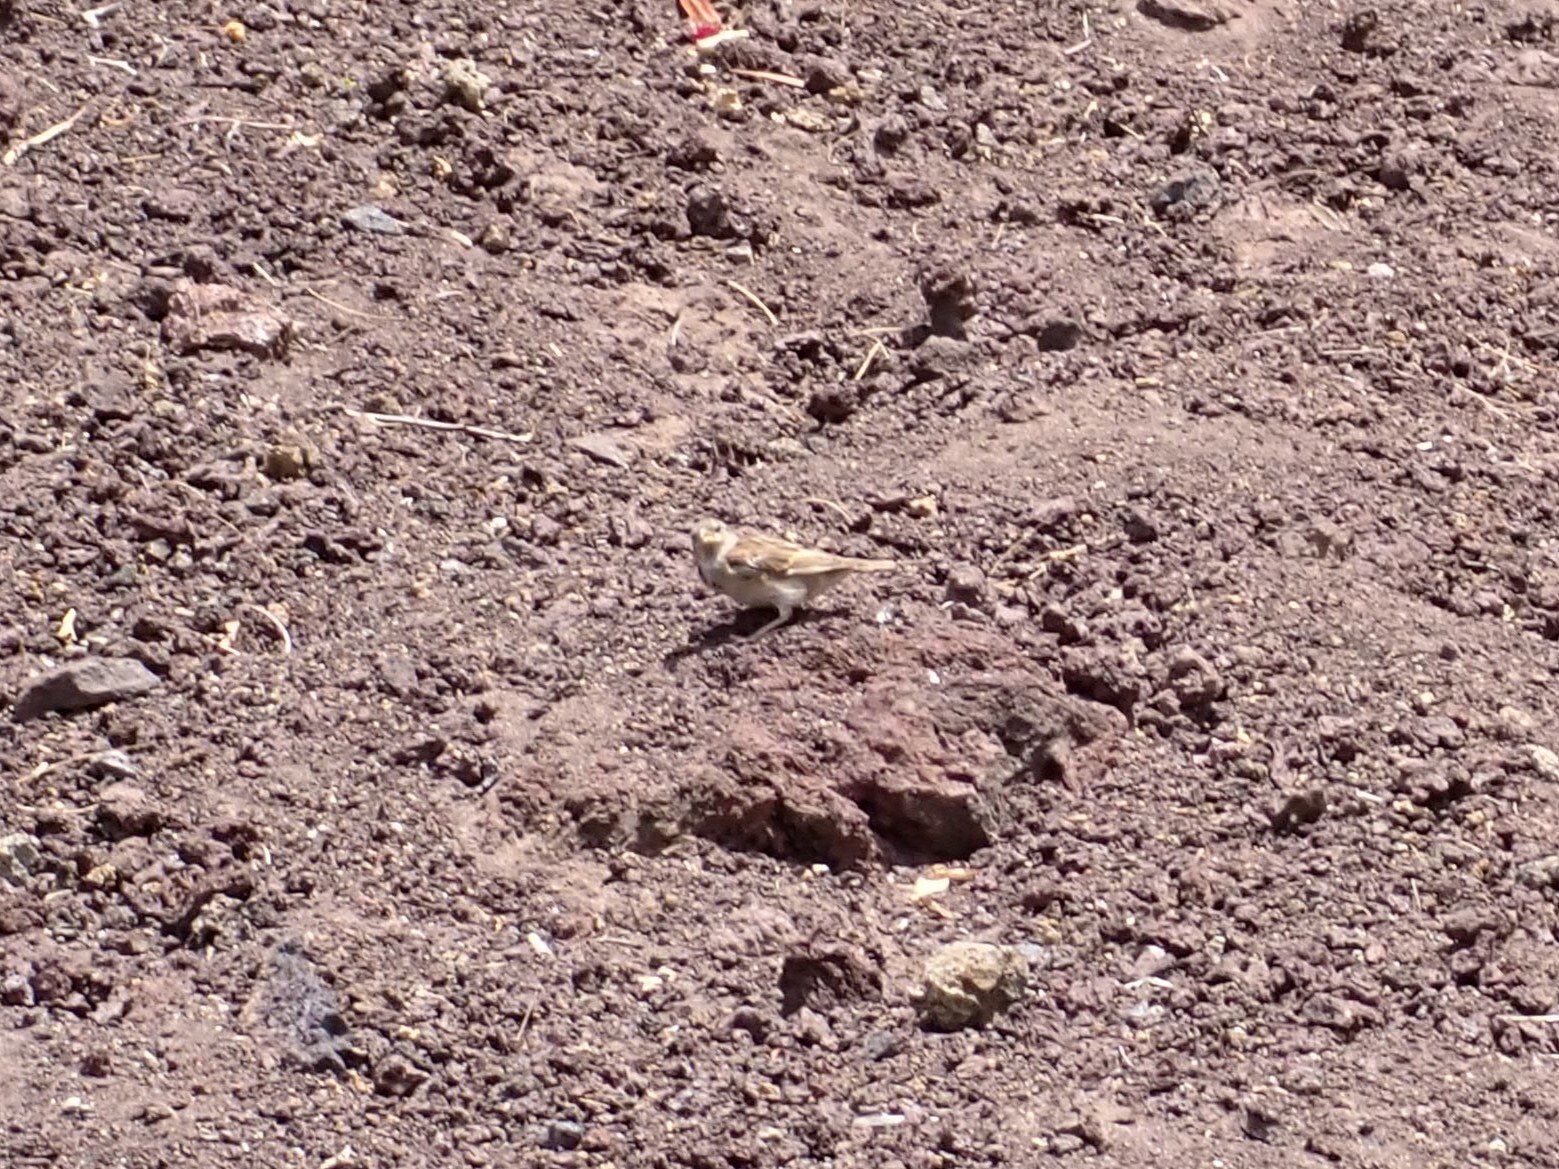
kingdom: Animalia
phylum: Chordata
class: Aves
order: Passeriformes
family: Passeridae
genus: Passer
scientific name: Passer domesticus
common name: House sparrow
